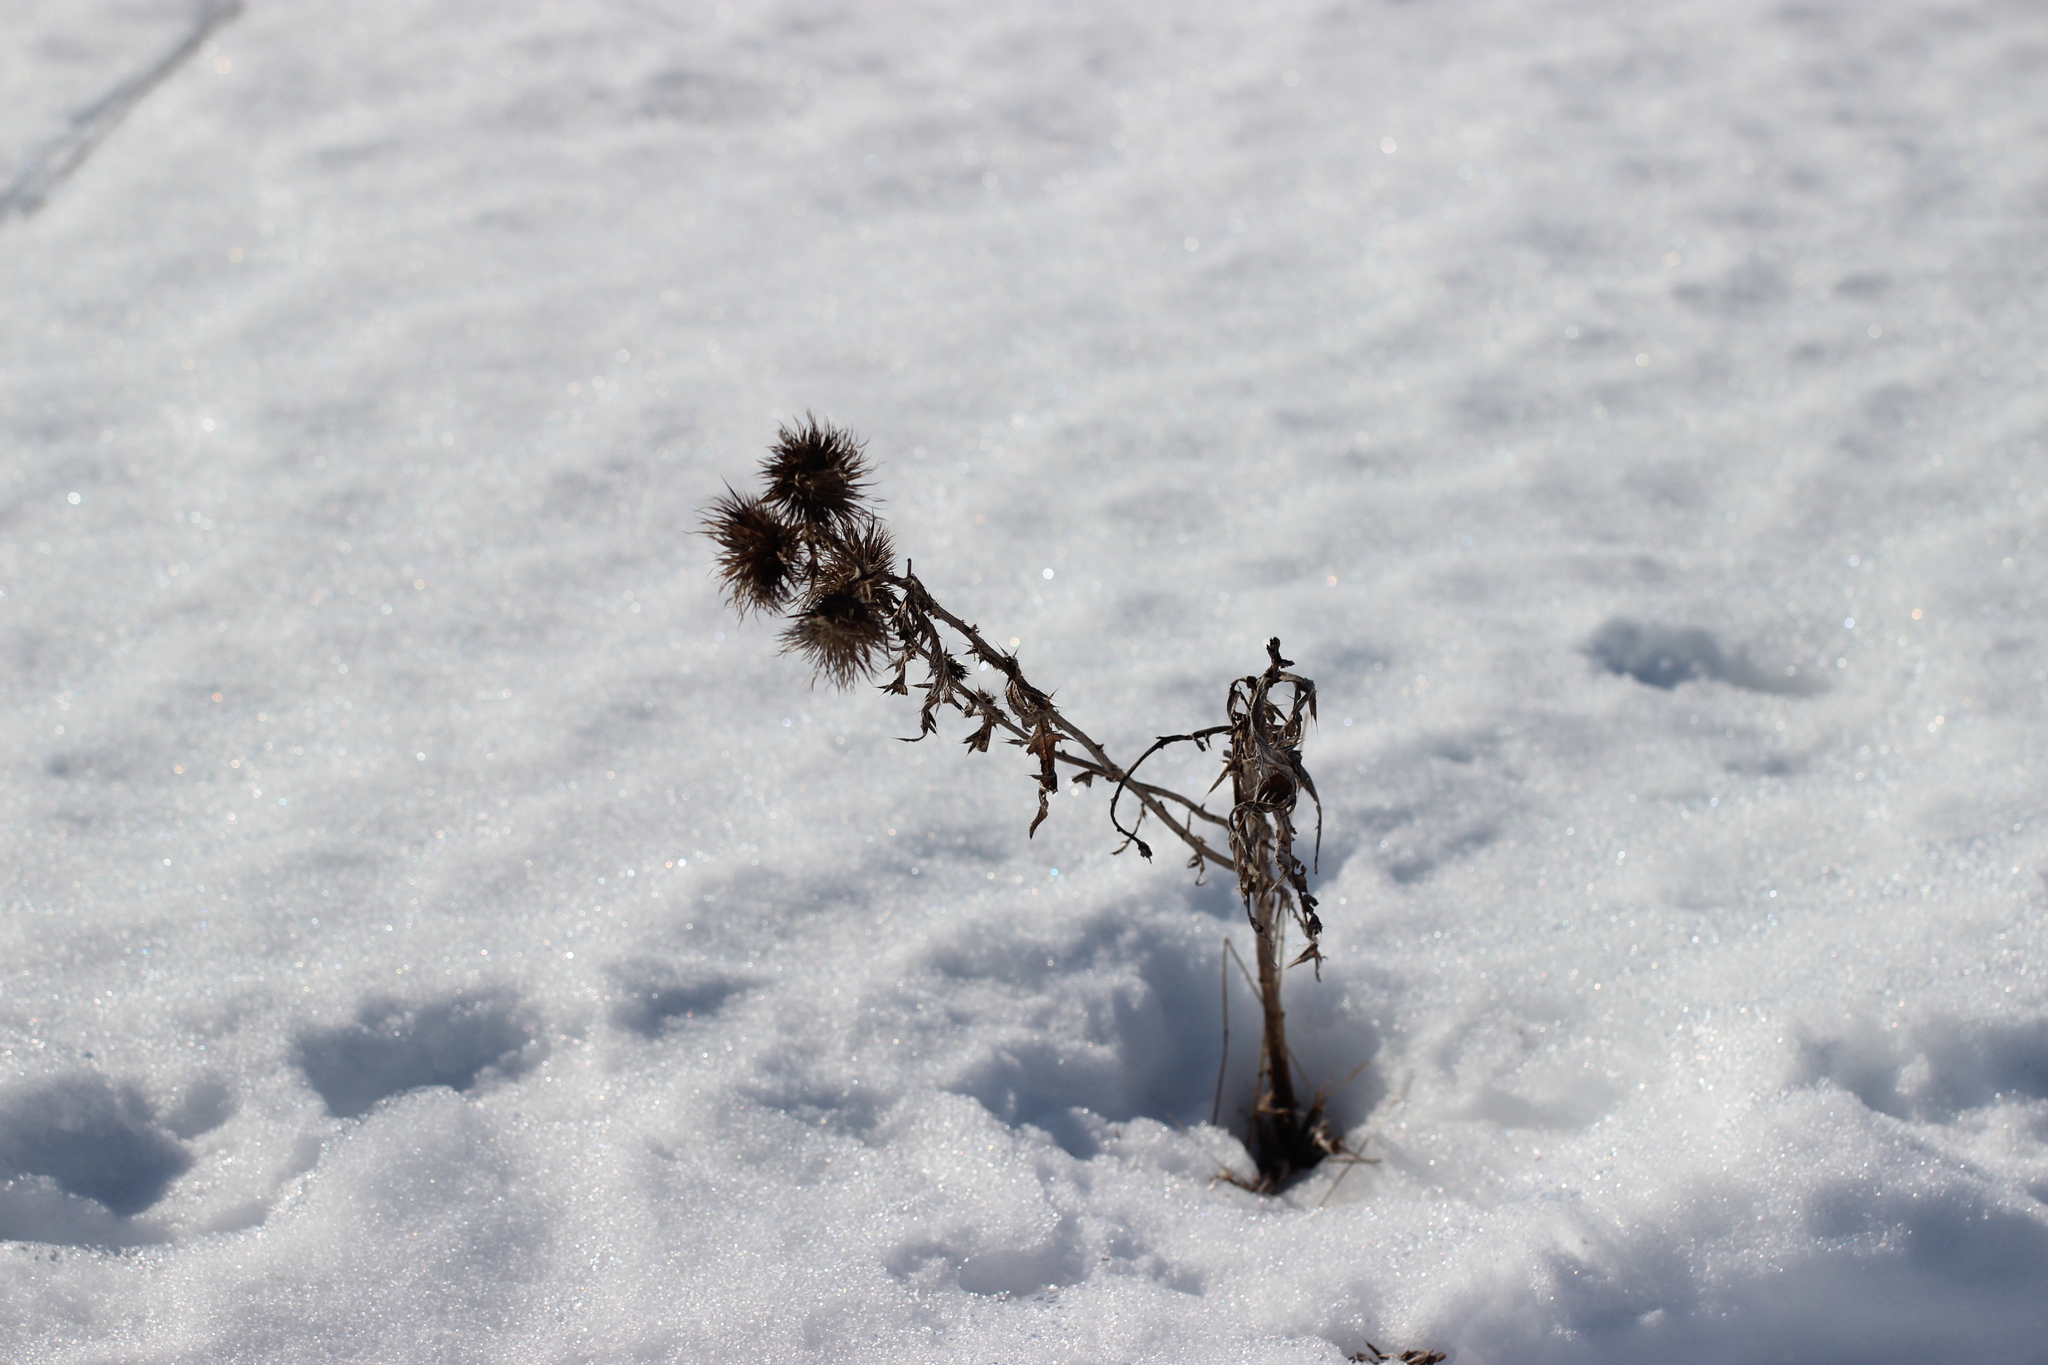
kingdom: Plantae
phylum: Tracheophyta
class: Magnoliopsida
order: Asterales
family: Asteraceae
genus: Cirsium
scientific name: Cirsium vulgare
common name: Bull thistle
